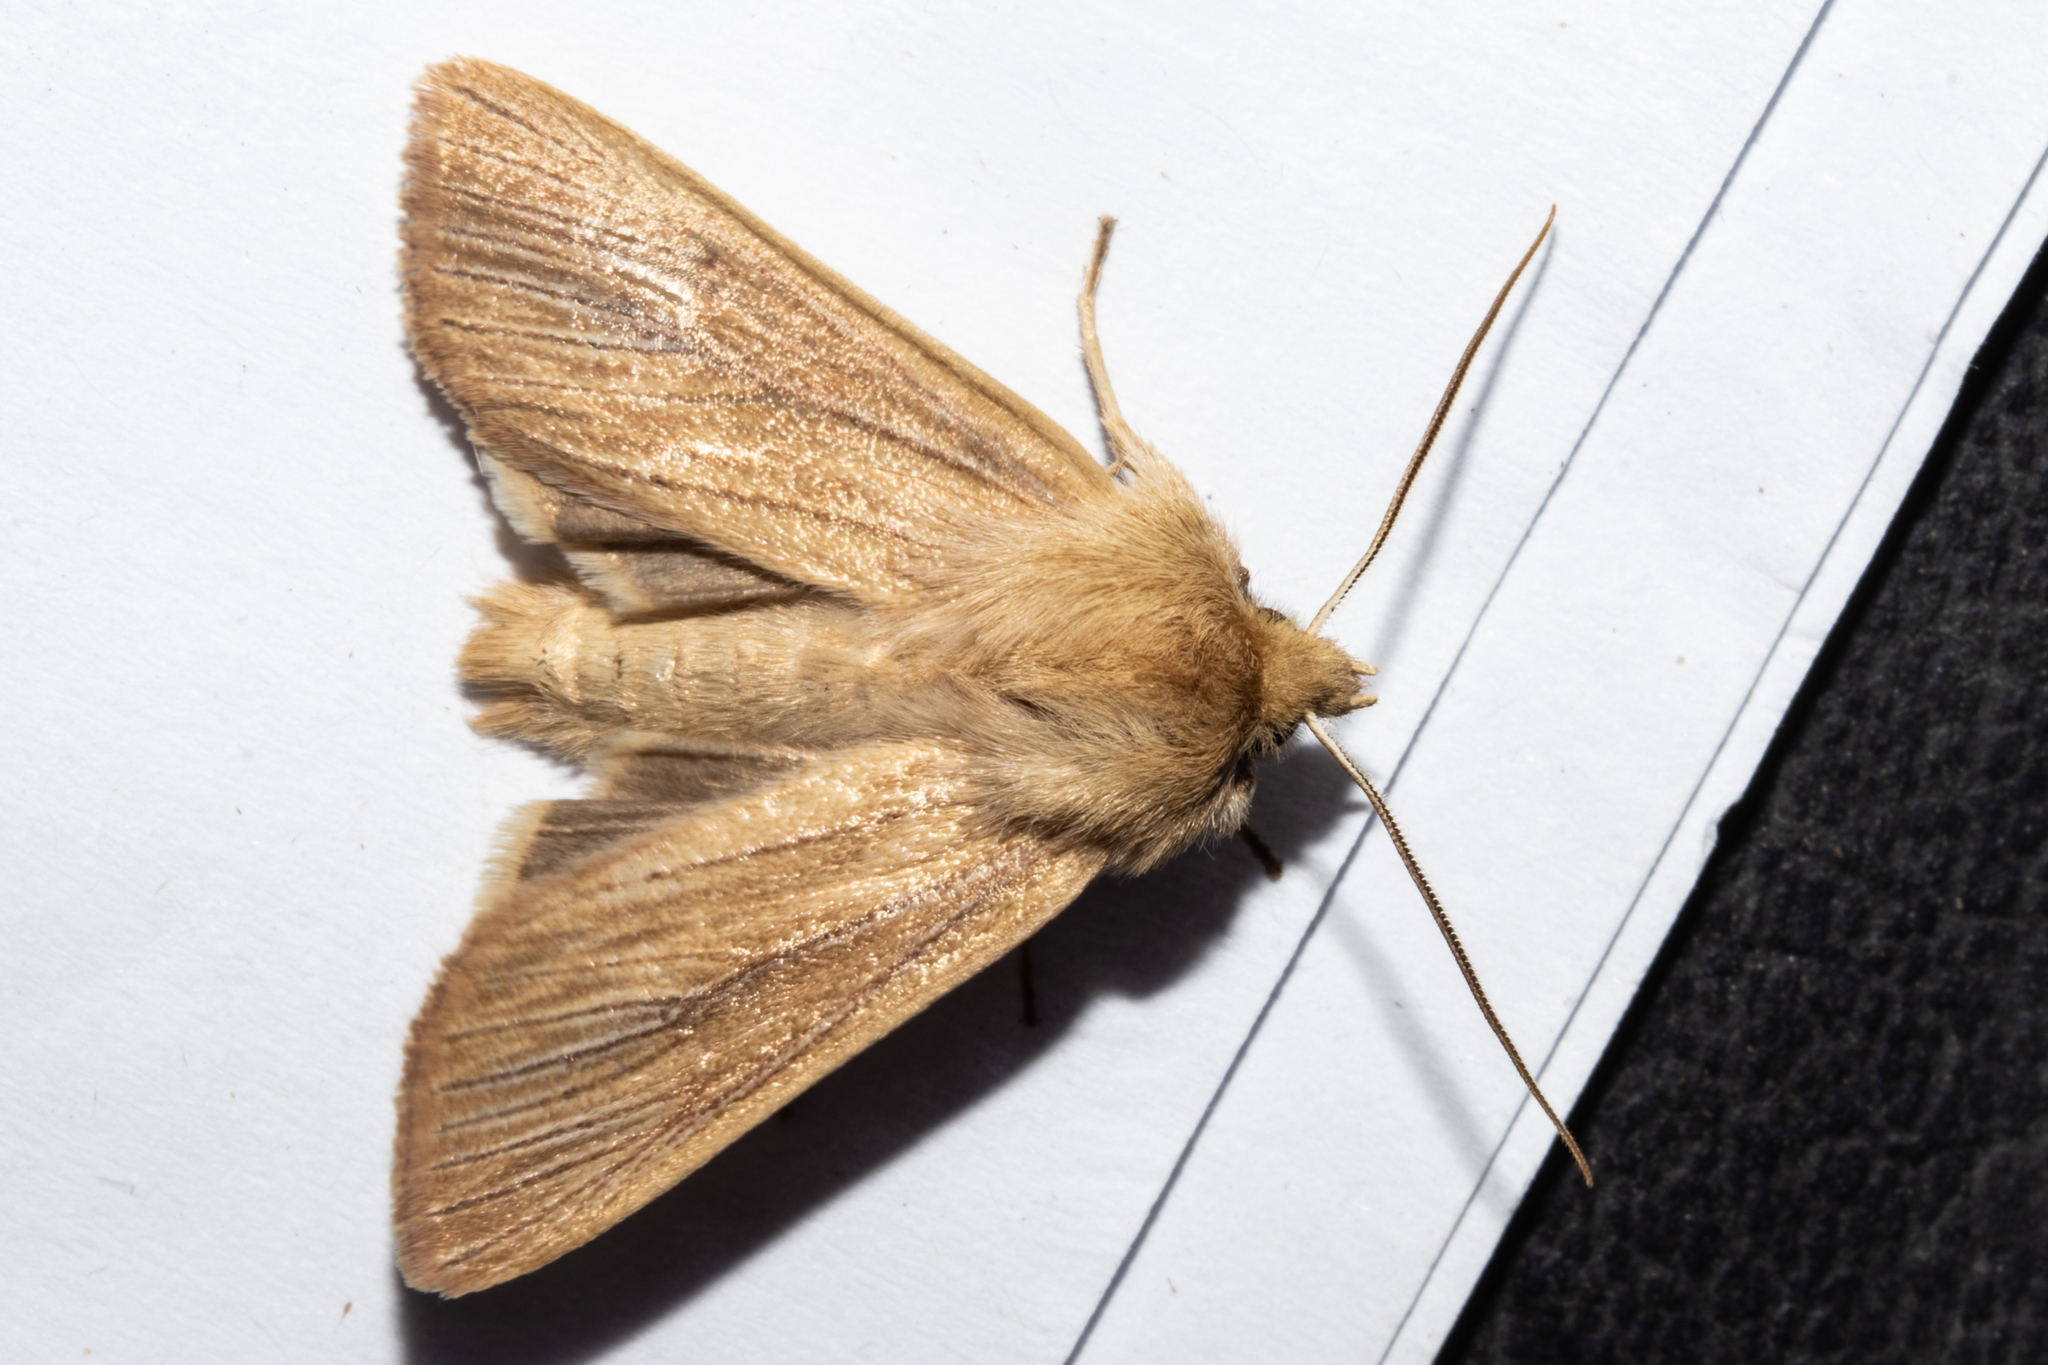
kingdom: Animalia
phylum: Arthropoda
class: Insecta
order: Lepidoptera
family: Noctuidae
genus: Ichneutica
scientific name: Ichneutica arotis
